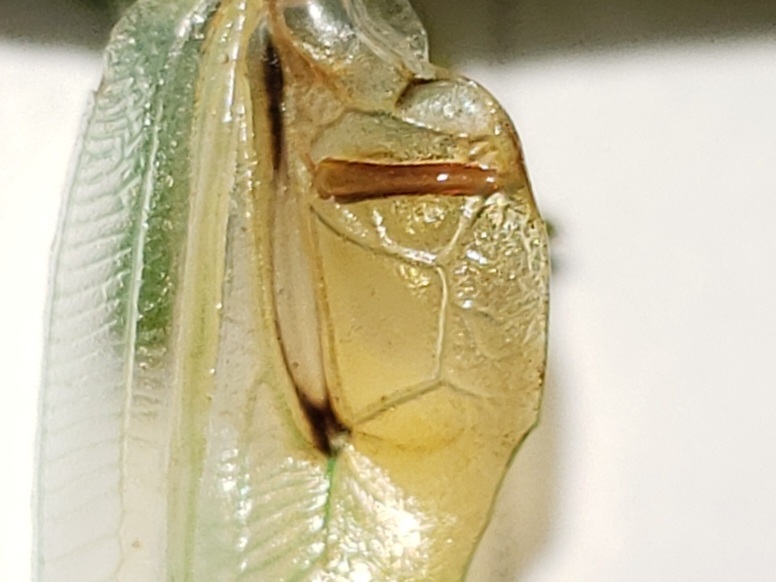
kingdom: Animalia
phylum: Arthropoda
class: Insecta
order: Orthoptera
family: Tettigoniidae
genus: Orchelimum
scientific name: Orchelimum agilis
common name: Agile meadow grasshopper
